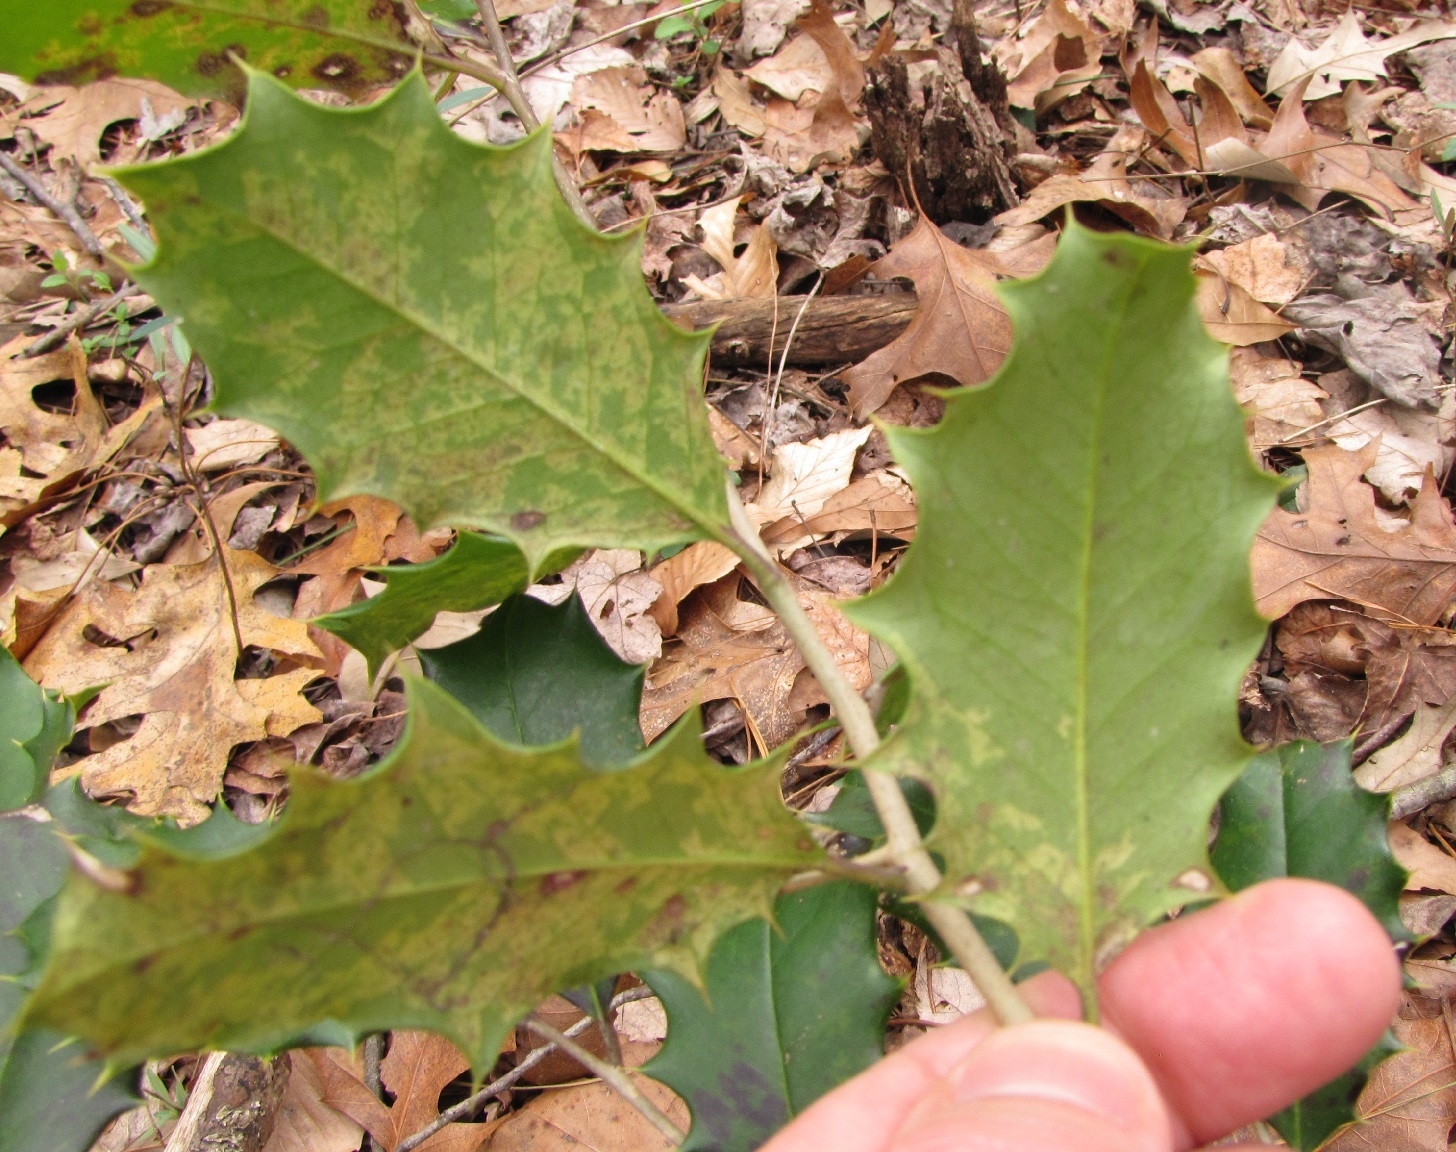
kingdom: Plantae
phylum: Tracheophyta
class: Magnoliopsida
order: Aquifoliales
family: Aquifoliaceae
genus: Ilex
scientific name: Ilex opaca
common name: American holly
